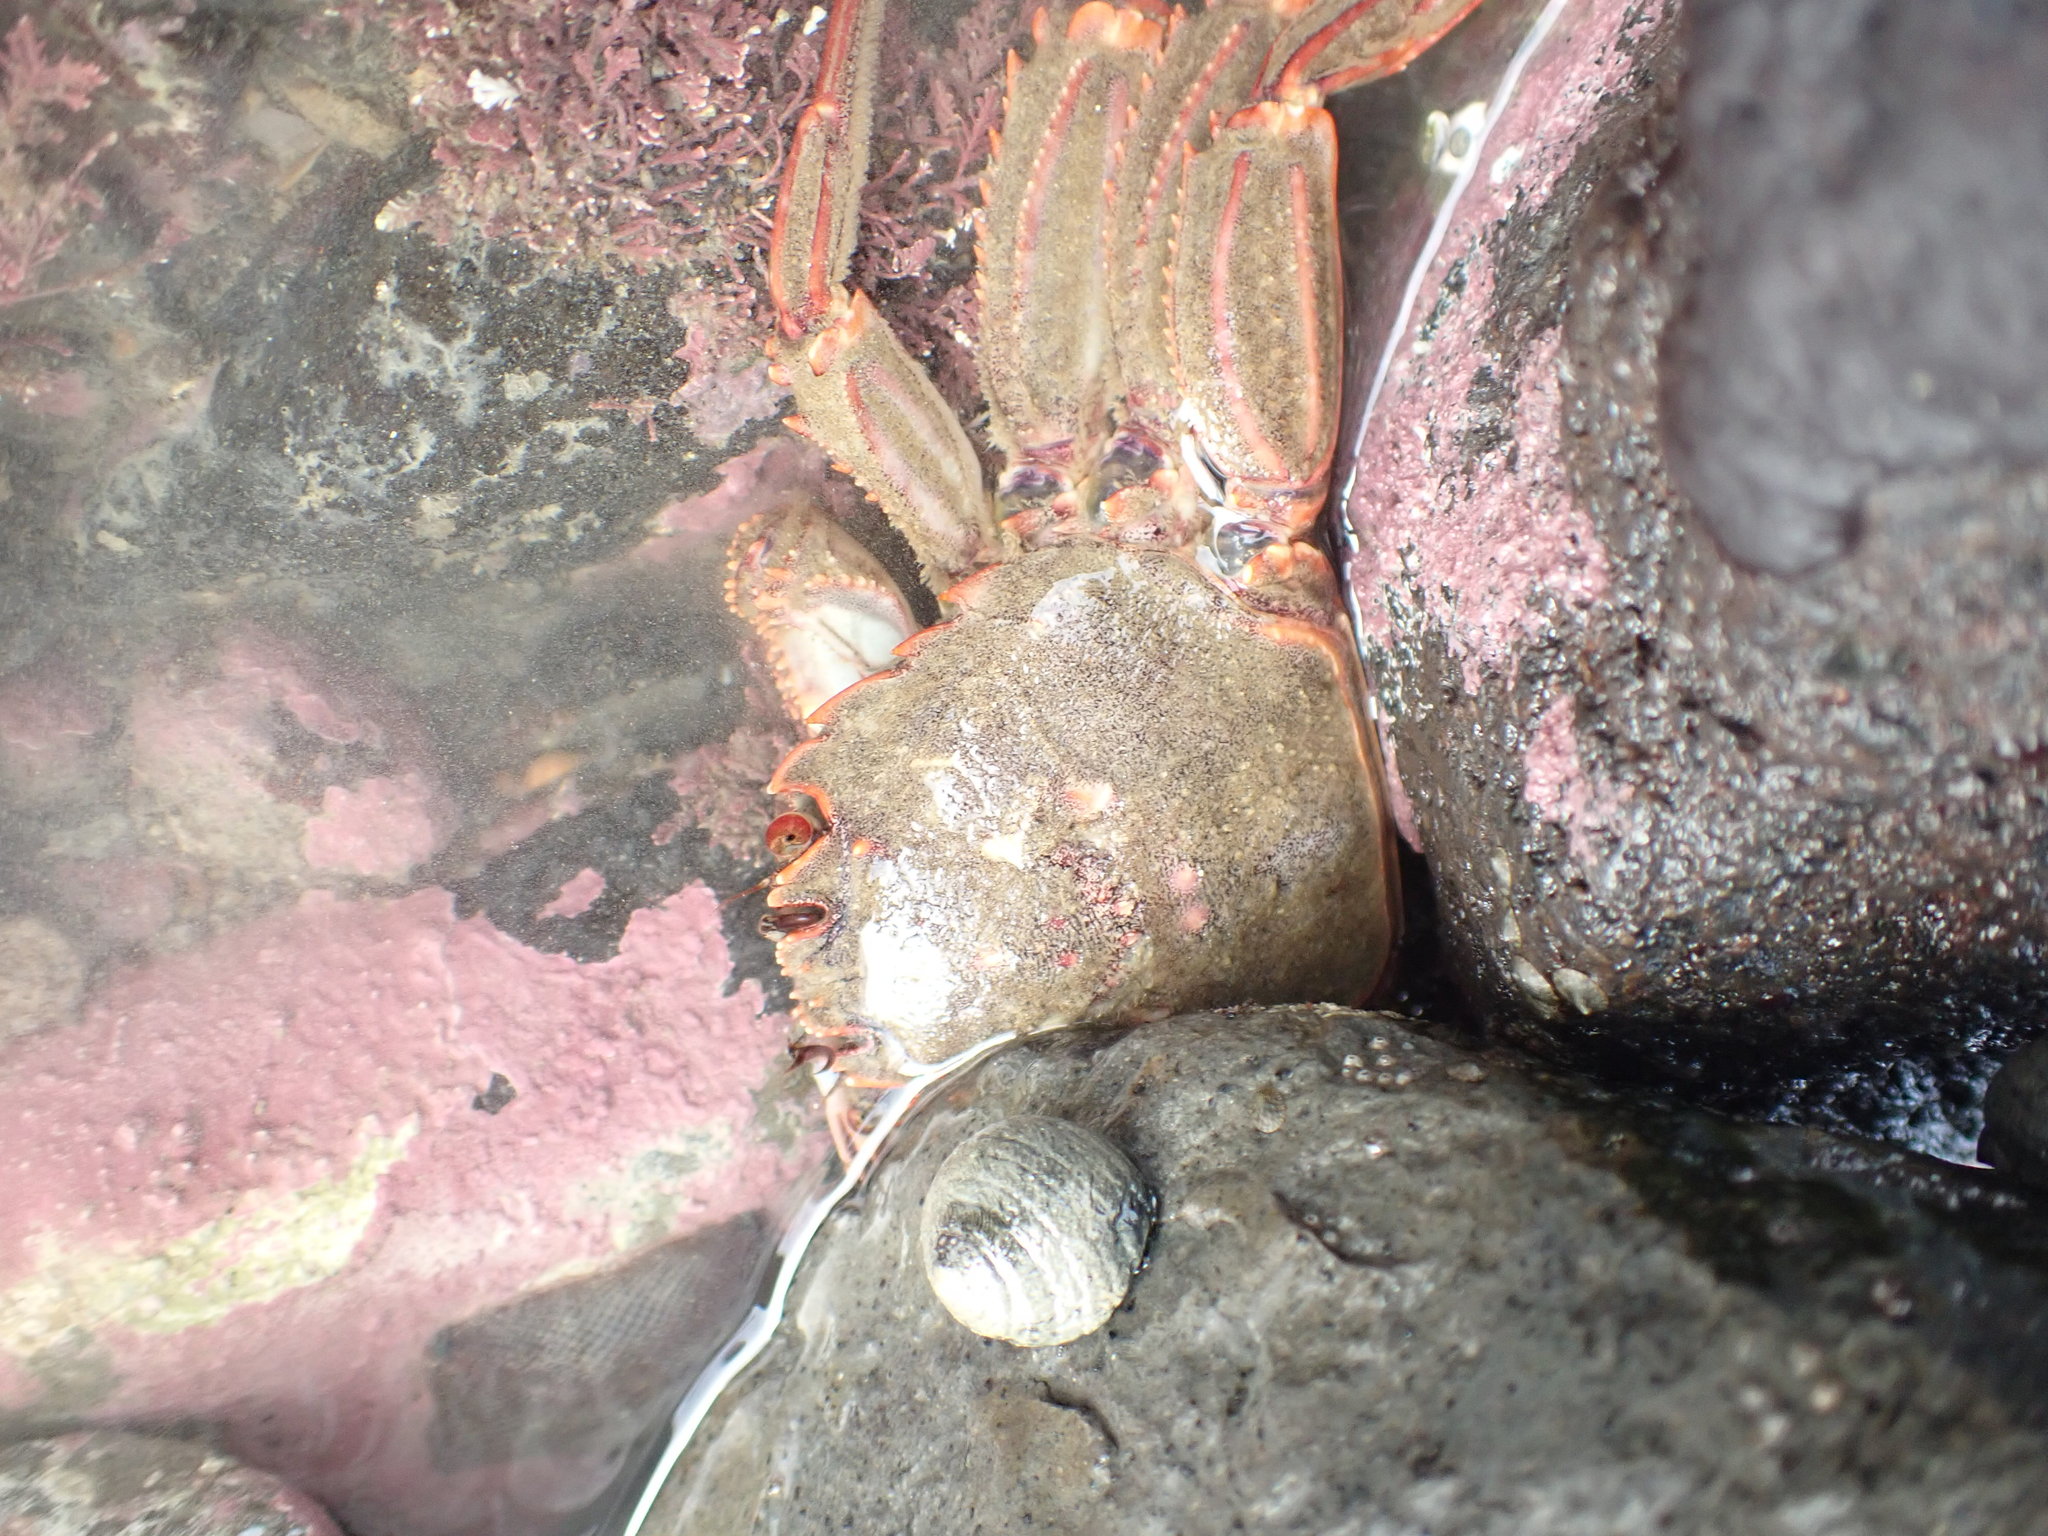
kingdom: Animalia
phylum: Arthropoda
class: Malacostraca
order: Decapoda
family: Plagusiidae
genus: Guinusia
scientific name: Guinusia chabrus
